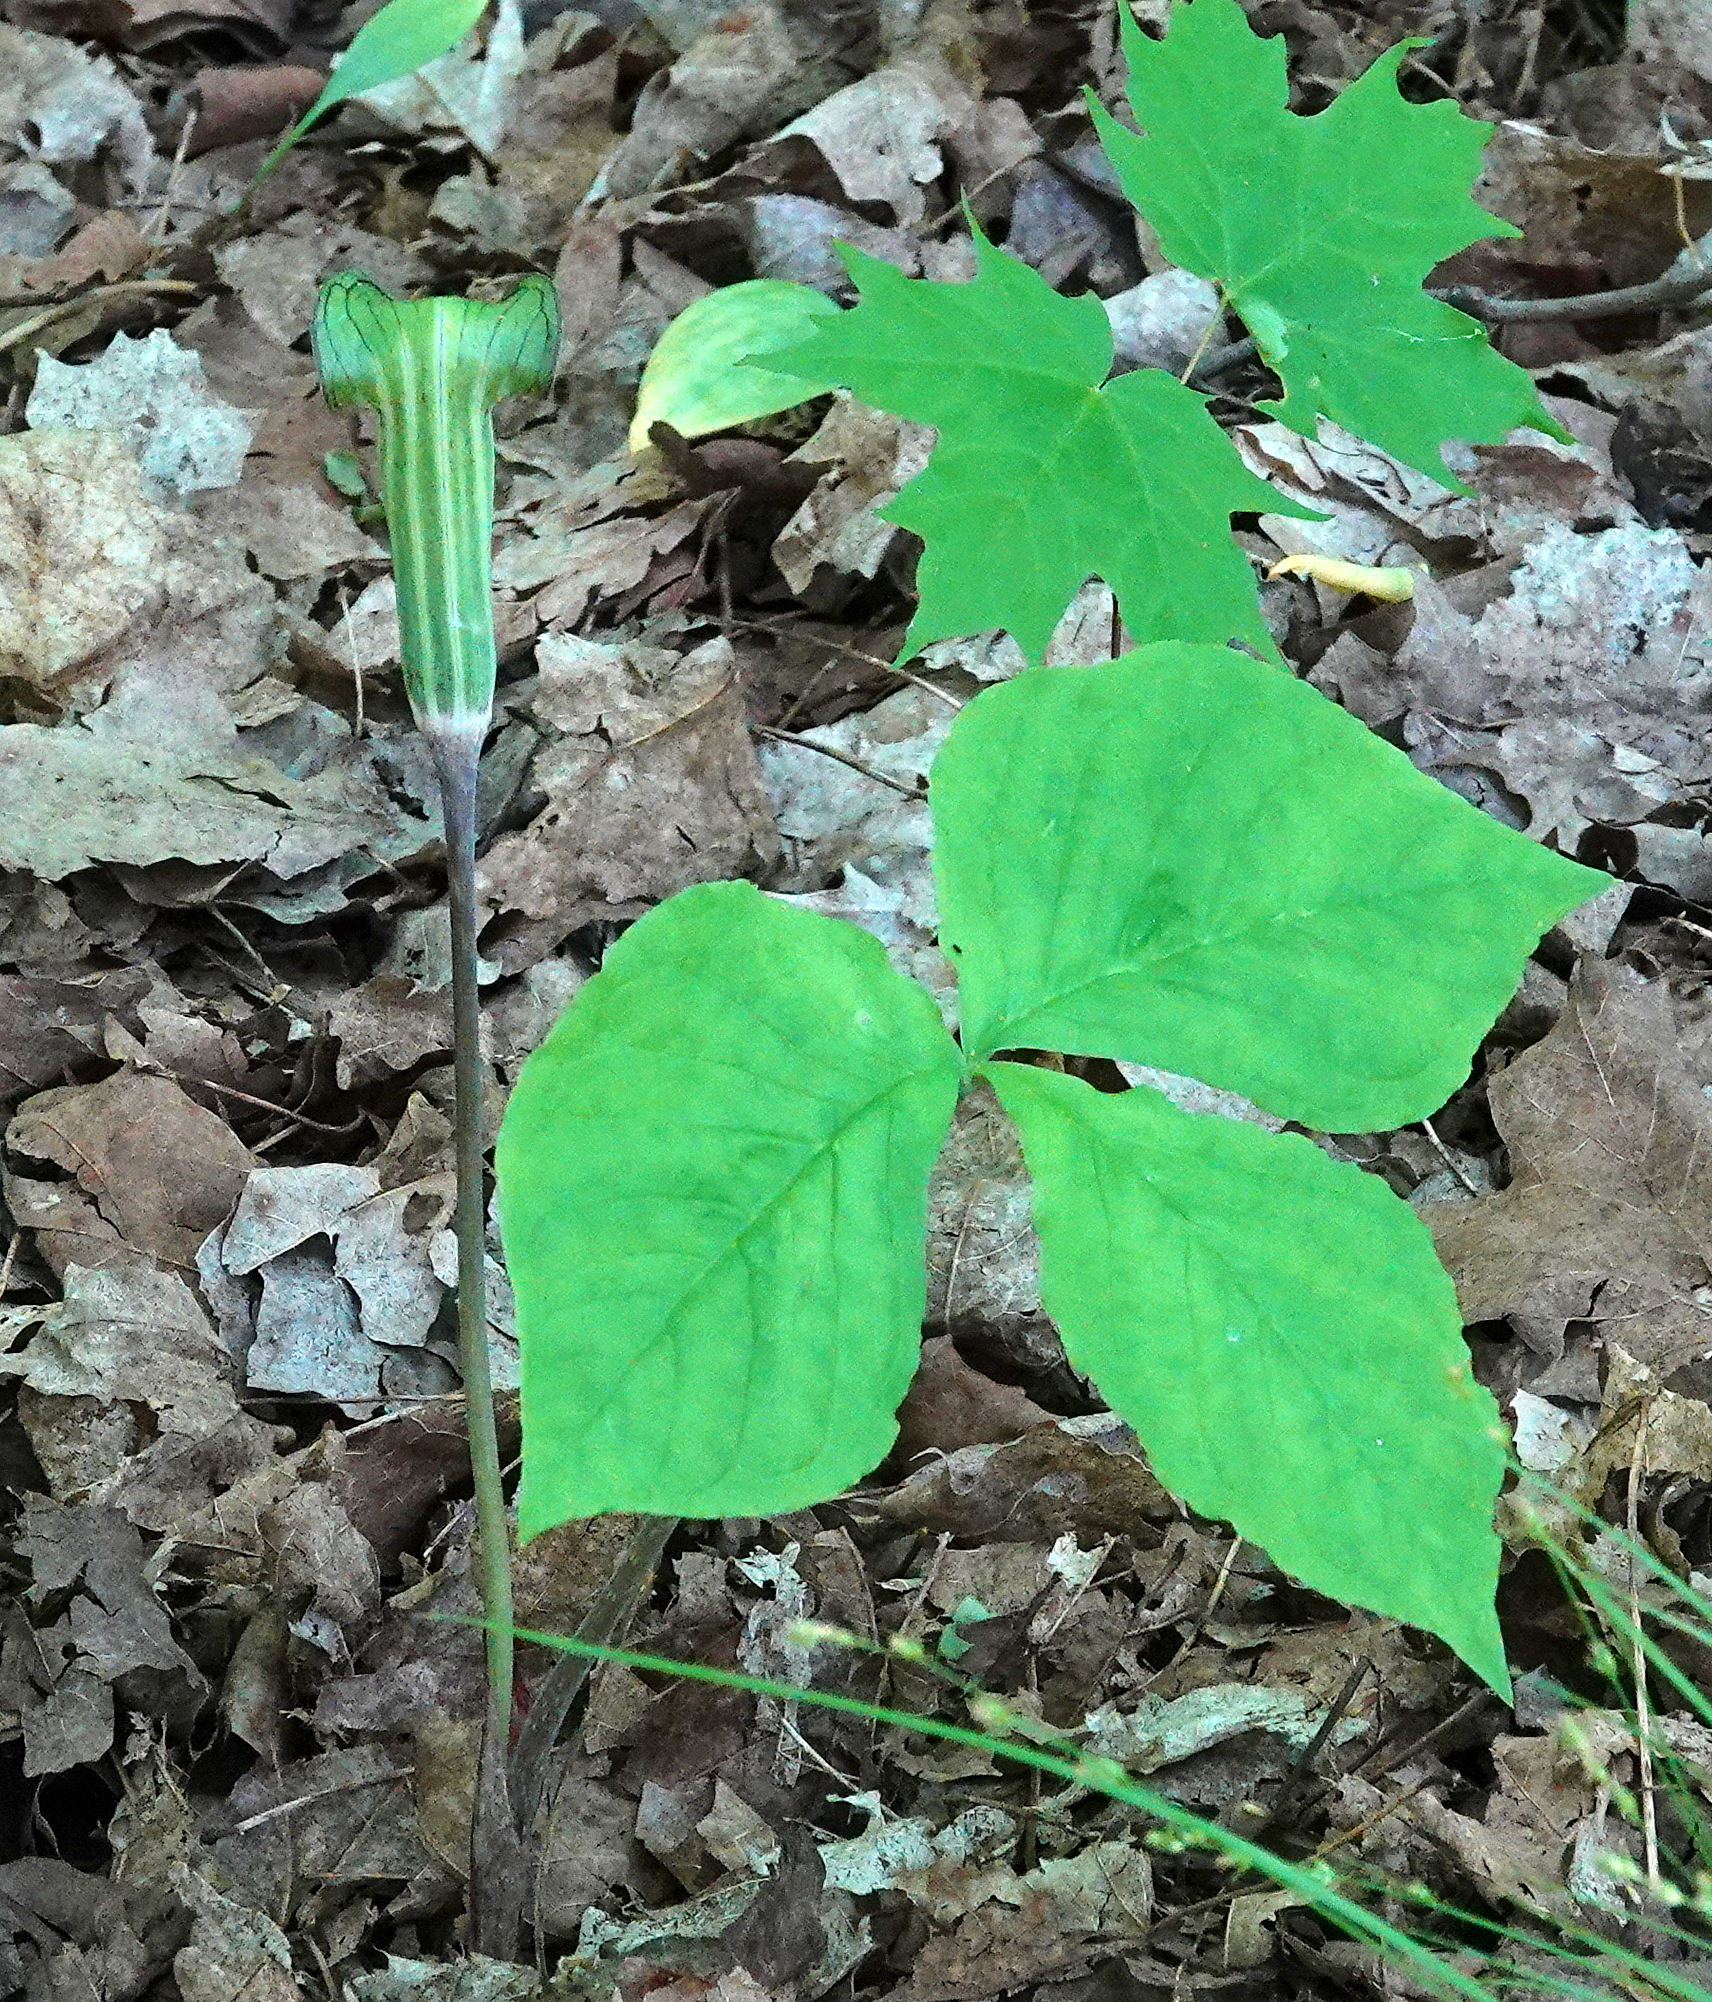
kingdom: Plantae
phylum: Tracheophyta
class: Liliopsida
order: Alismatales
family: Araceae
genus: Arisaema
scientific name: Arisaema triphyllum
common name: Jack-in-the-pulpit
